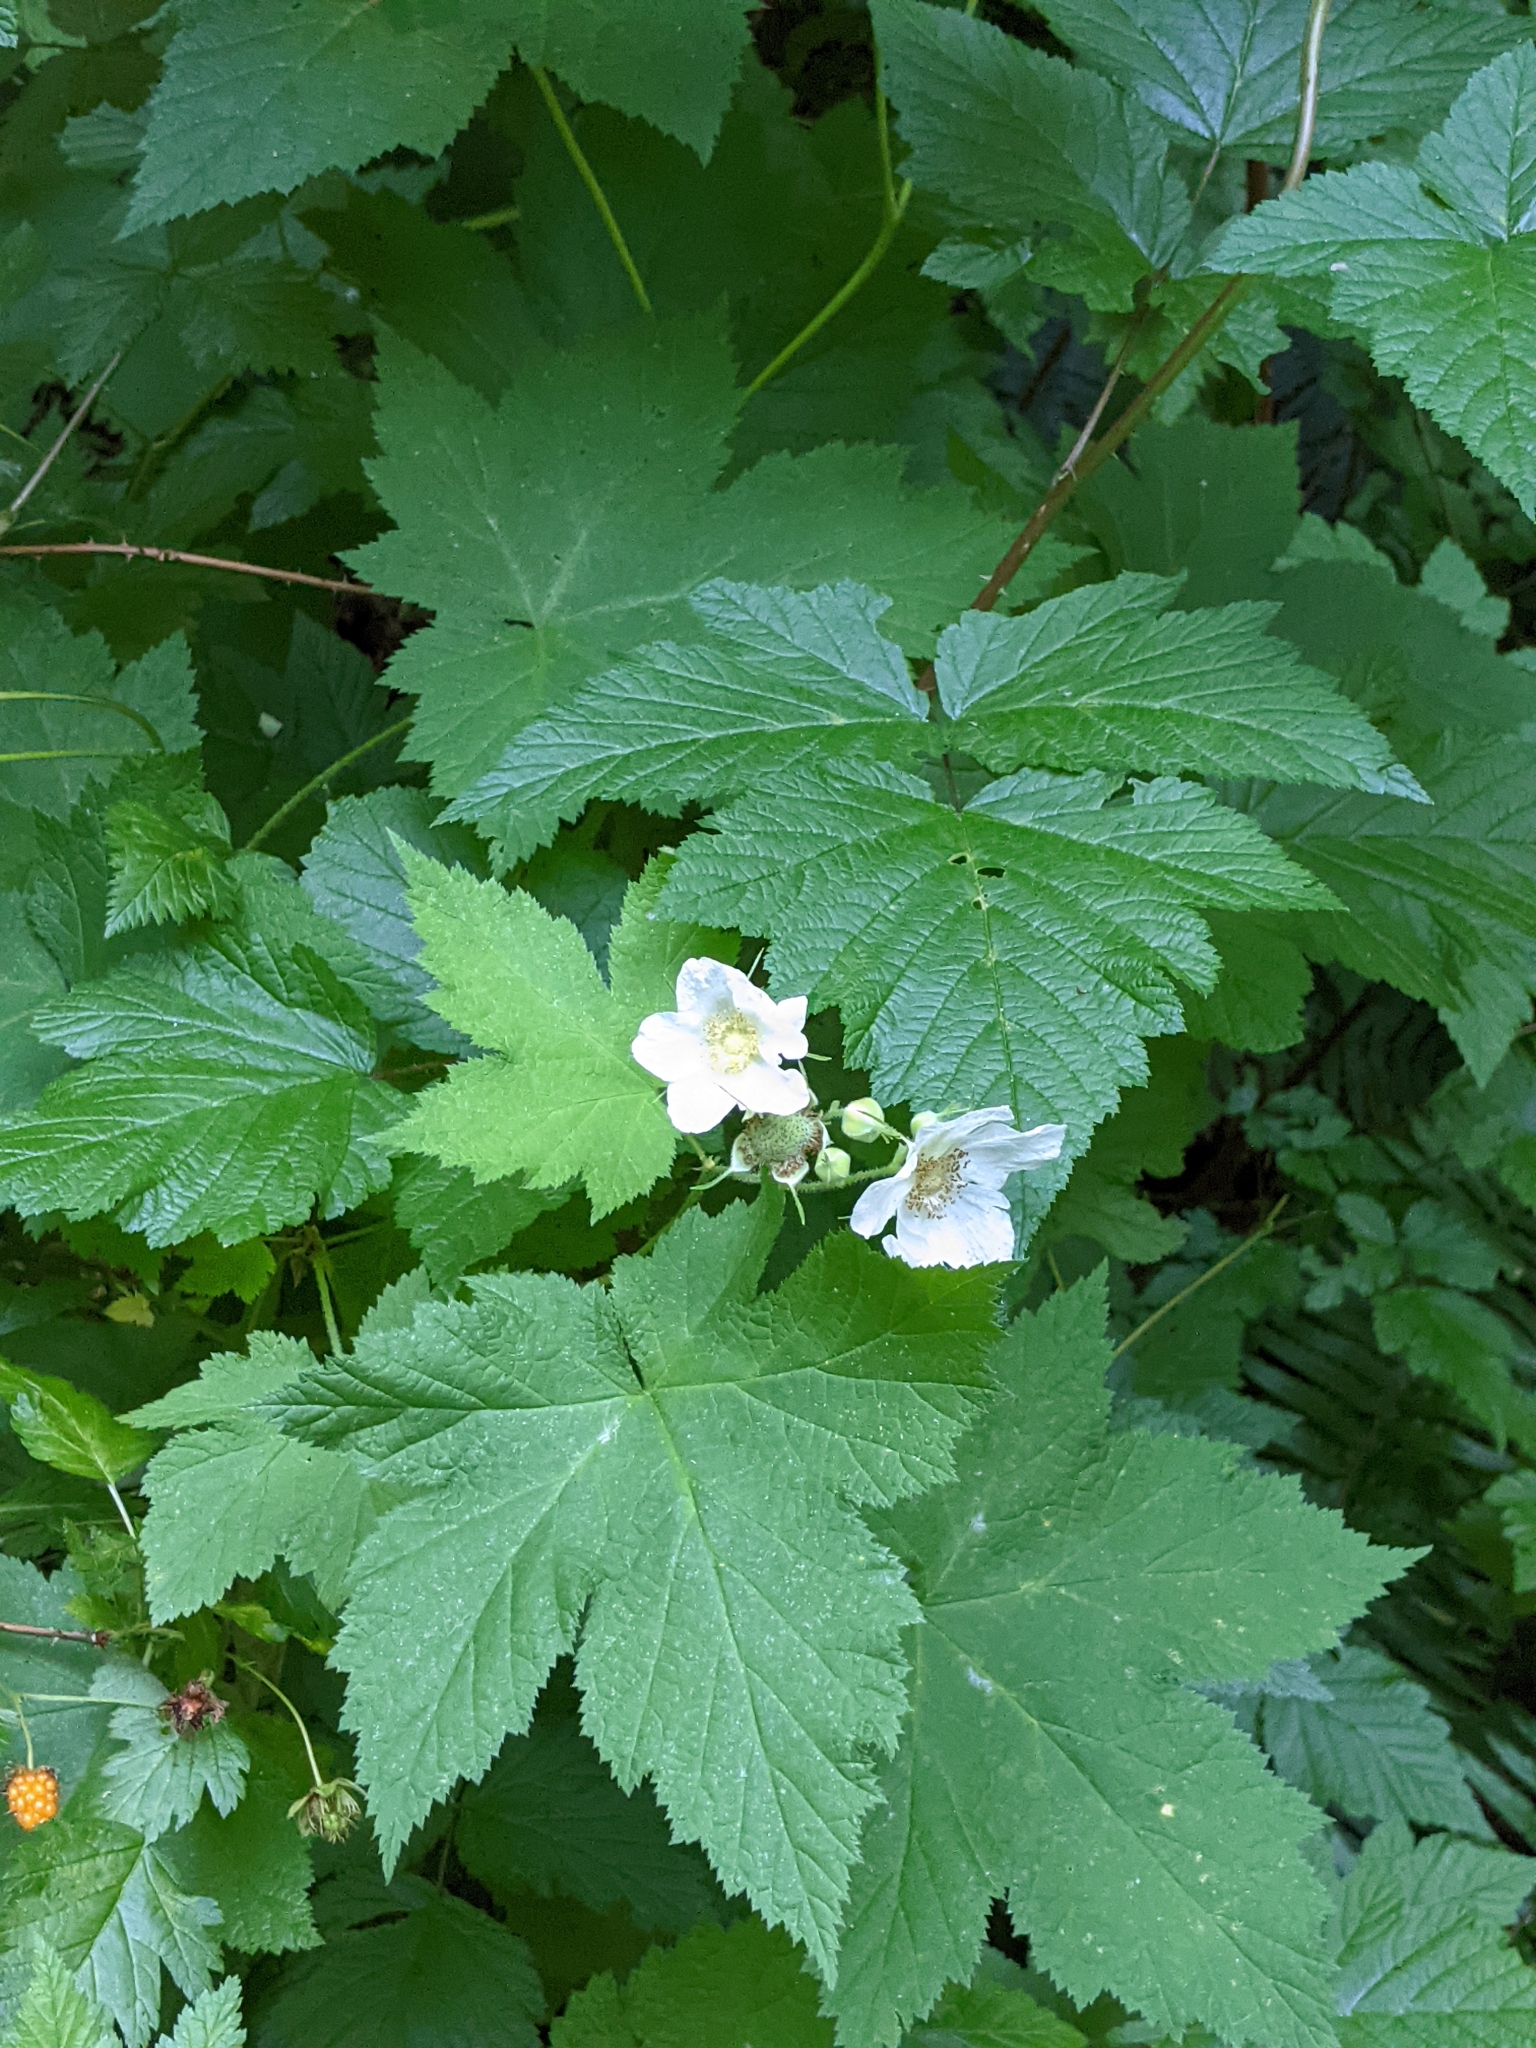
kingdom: Plantae
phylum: Tracheophyta
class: Magnoliopsida
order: Rosales
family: Rosaceae
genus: Rubus
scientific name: Rubus parviflorus
